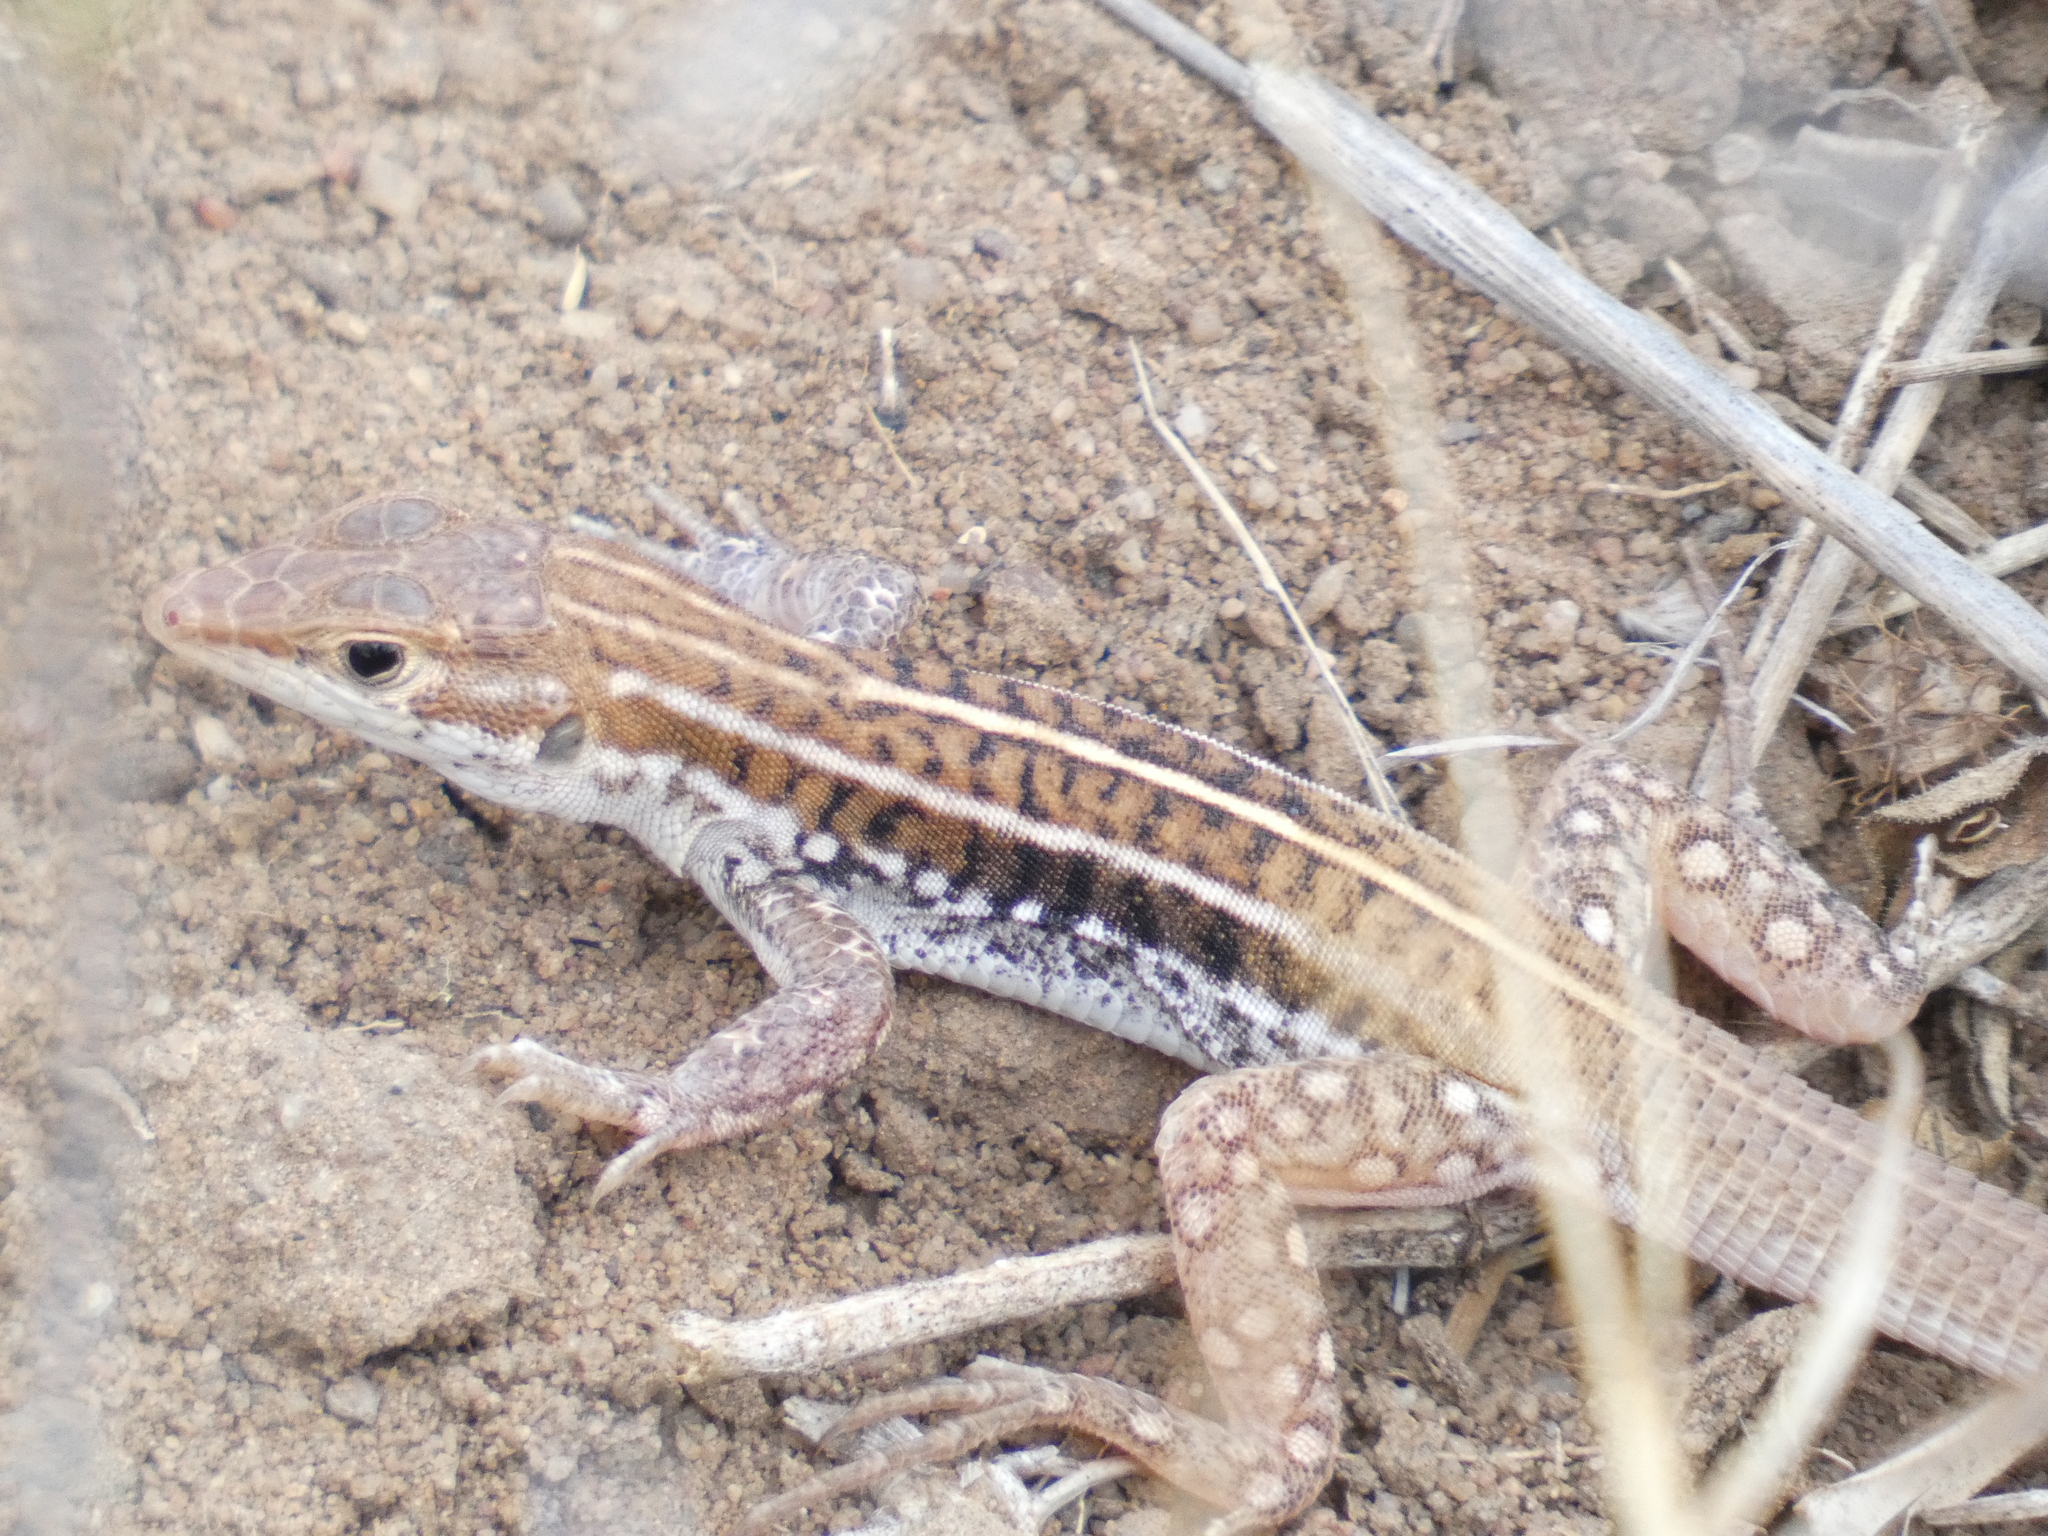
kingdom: Animalia
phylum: Chordata
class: Squamata
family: Lacertidae
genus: Heliobolus
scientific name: Heliobolus lugubris
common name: Bushveld lizard
